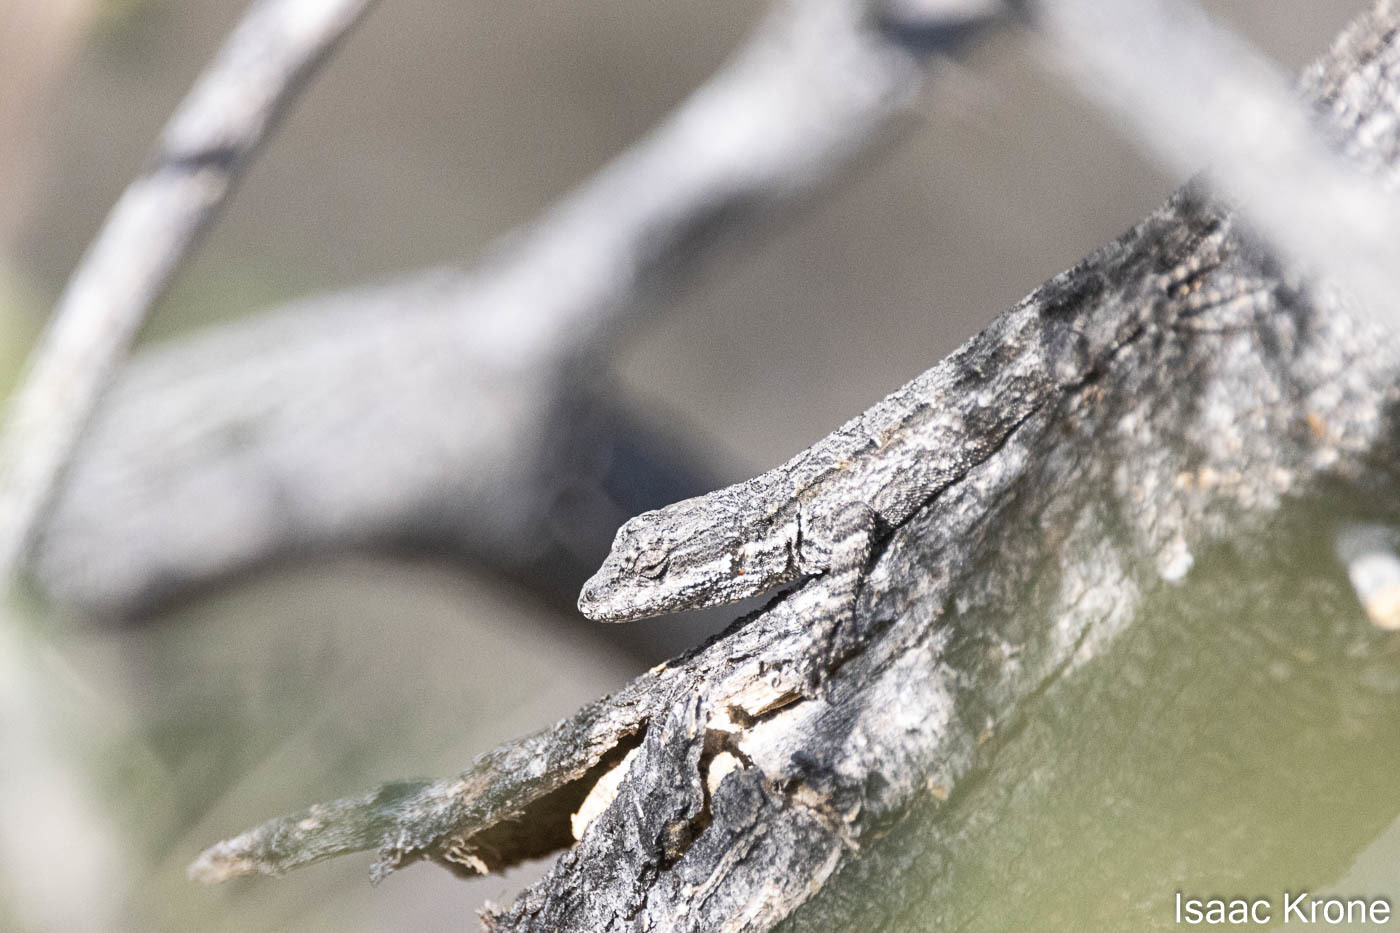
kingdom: Animalia
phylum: Chordata
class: Squamata
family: Phrynosomatidae
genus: Urosaurus
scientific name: Urosaurus ornatus
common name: Ornate tree lizard
